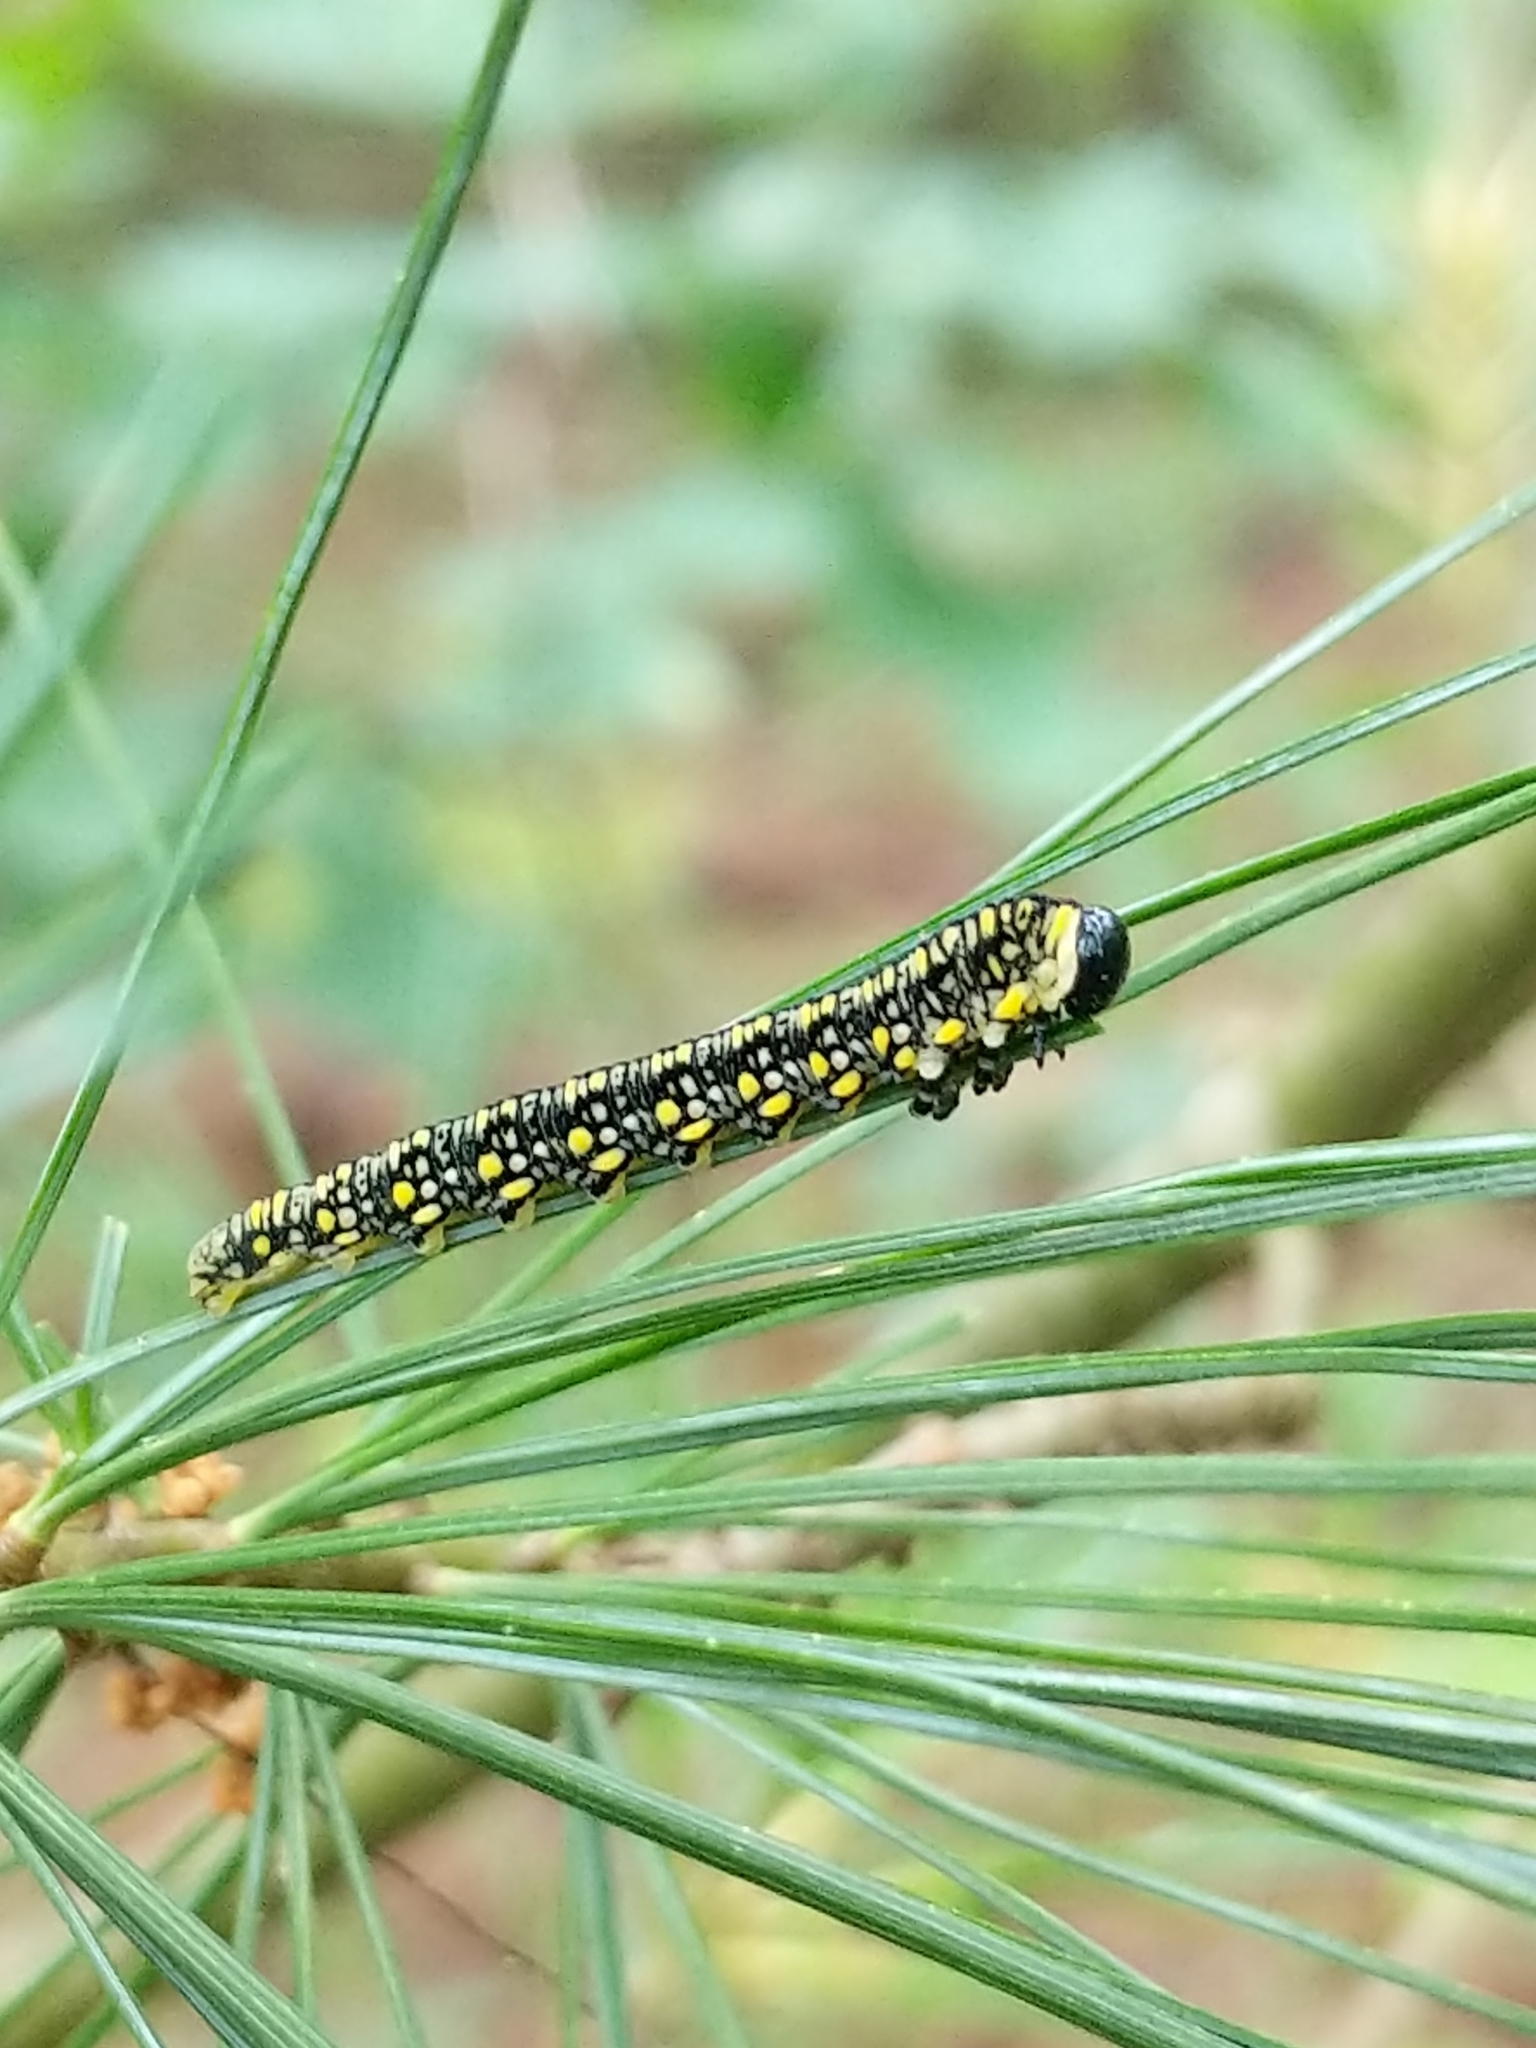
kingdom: Animalia
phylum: Arthropoda
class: Insecta
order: Hymenoptera
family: Diprionidae
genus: Diprion
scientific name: Diprion similis
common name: Pine sawfly
